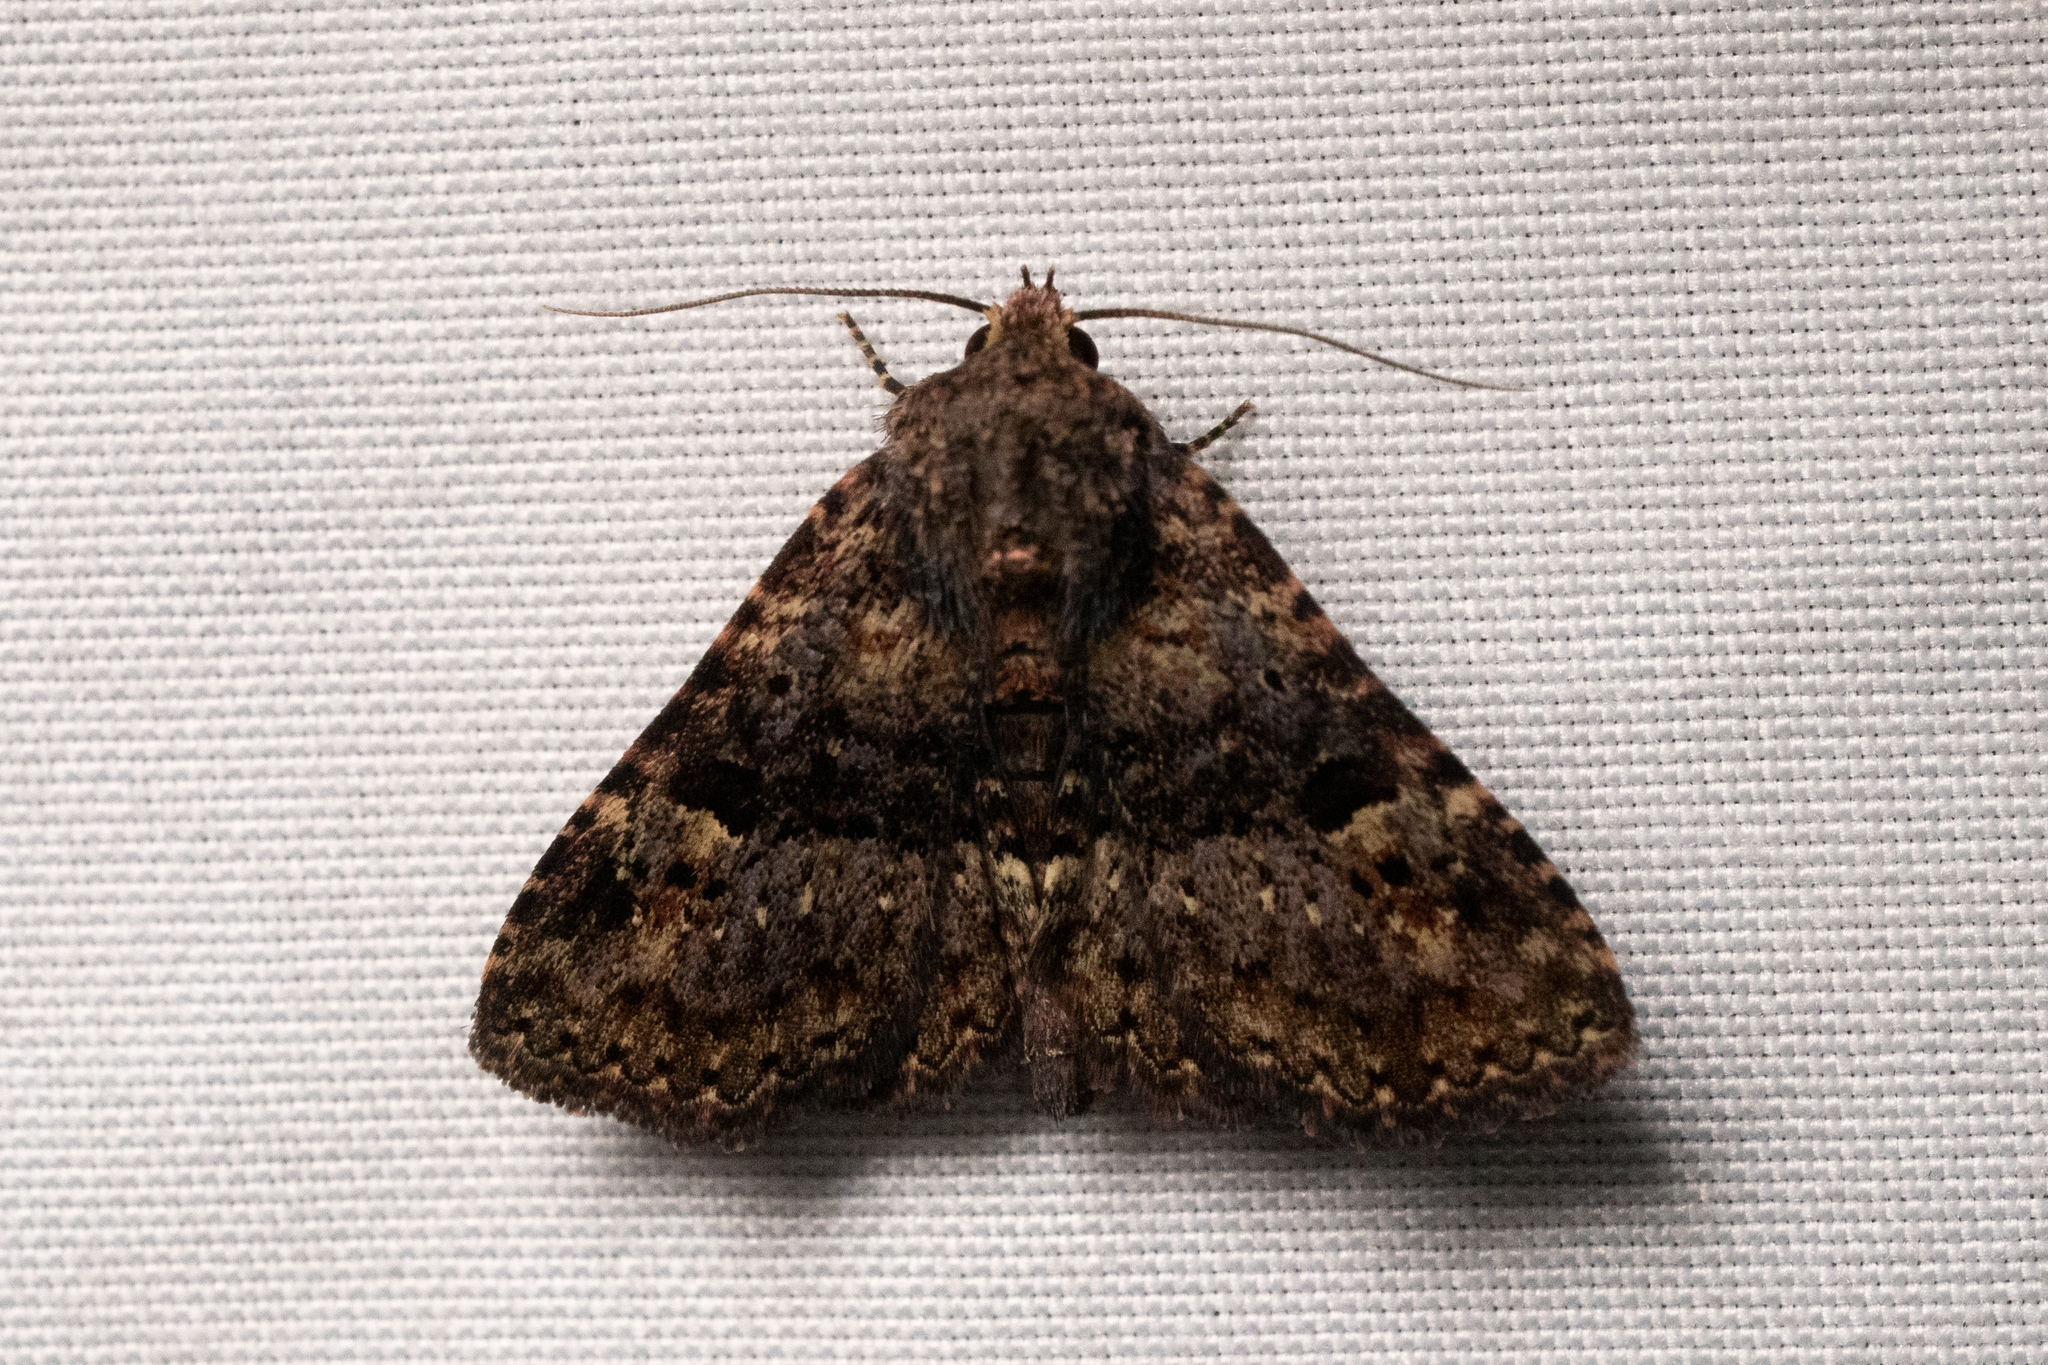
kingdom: Animalia
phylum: Arthropoda
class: Insecta
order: Lepidoptera
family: Erebidae
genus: Metalectra
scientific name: Metalectra discalis
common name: Common fungus moth
